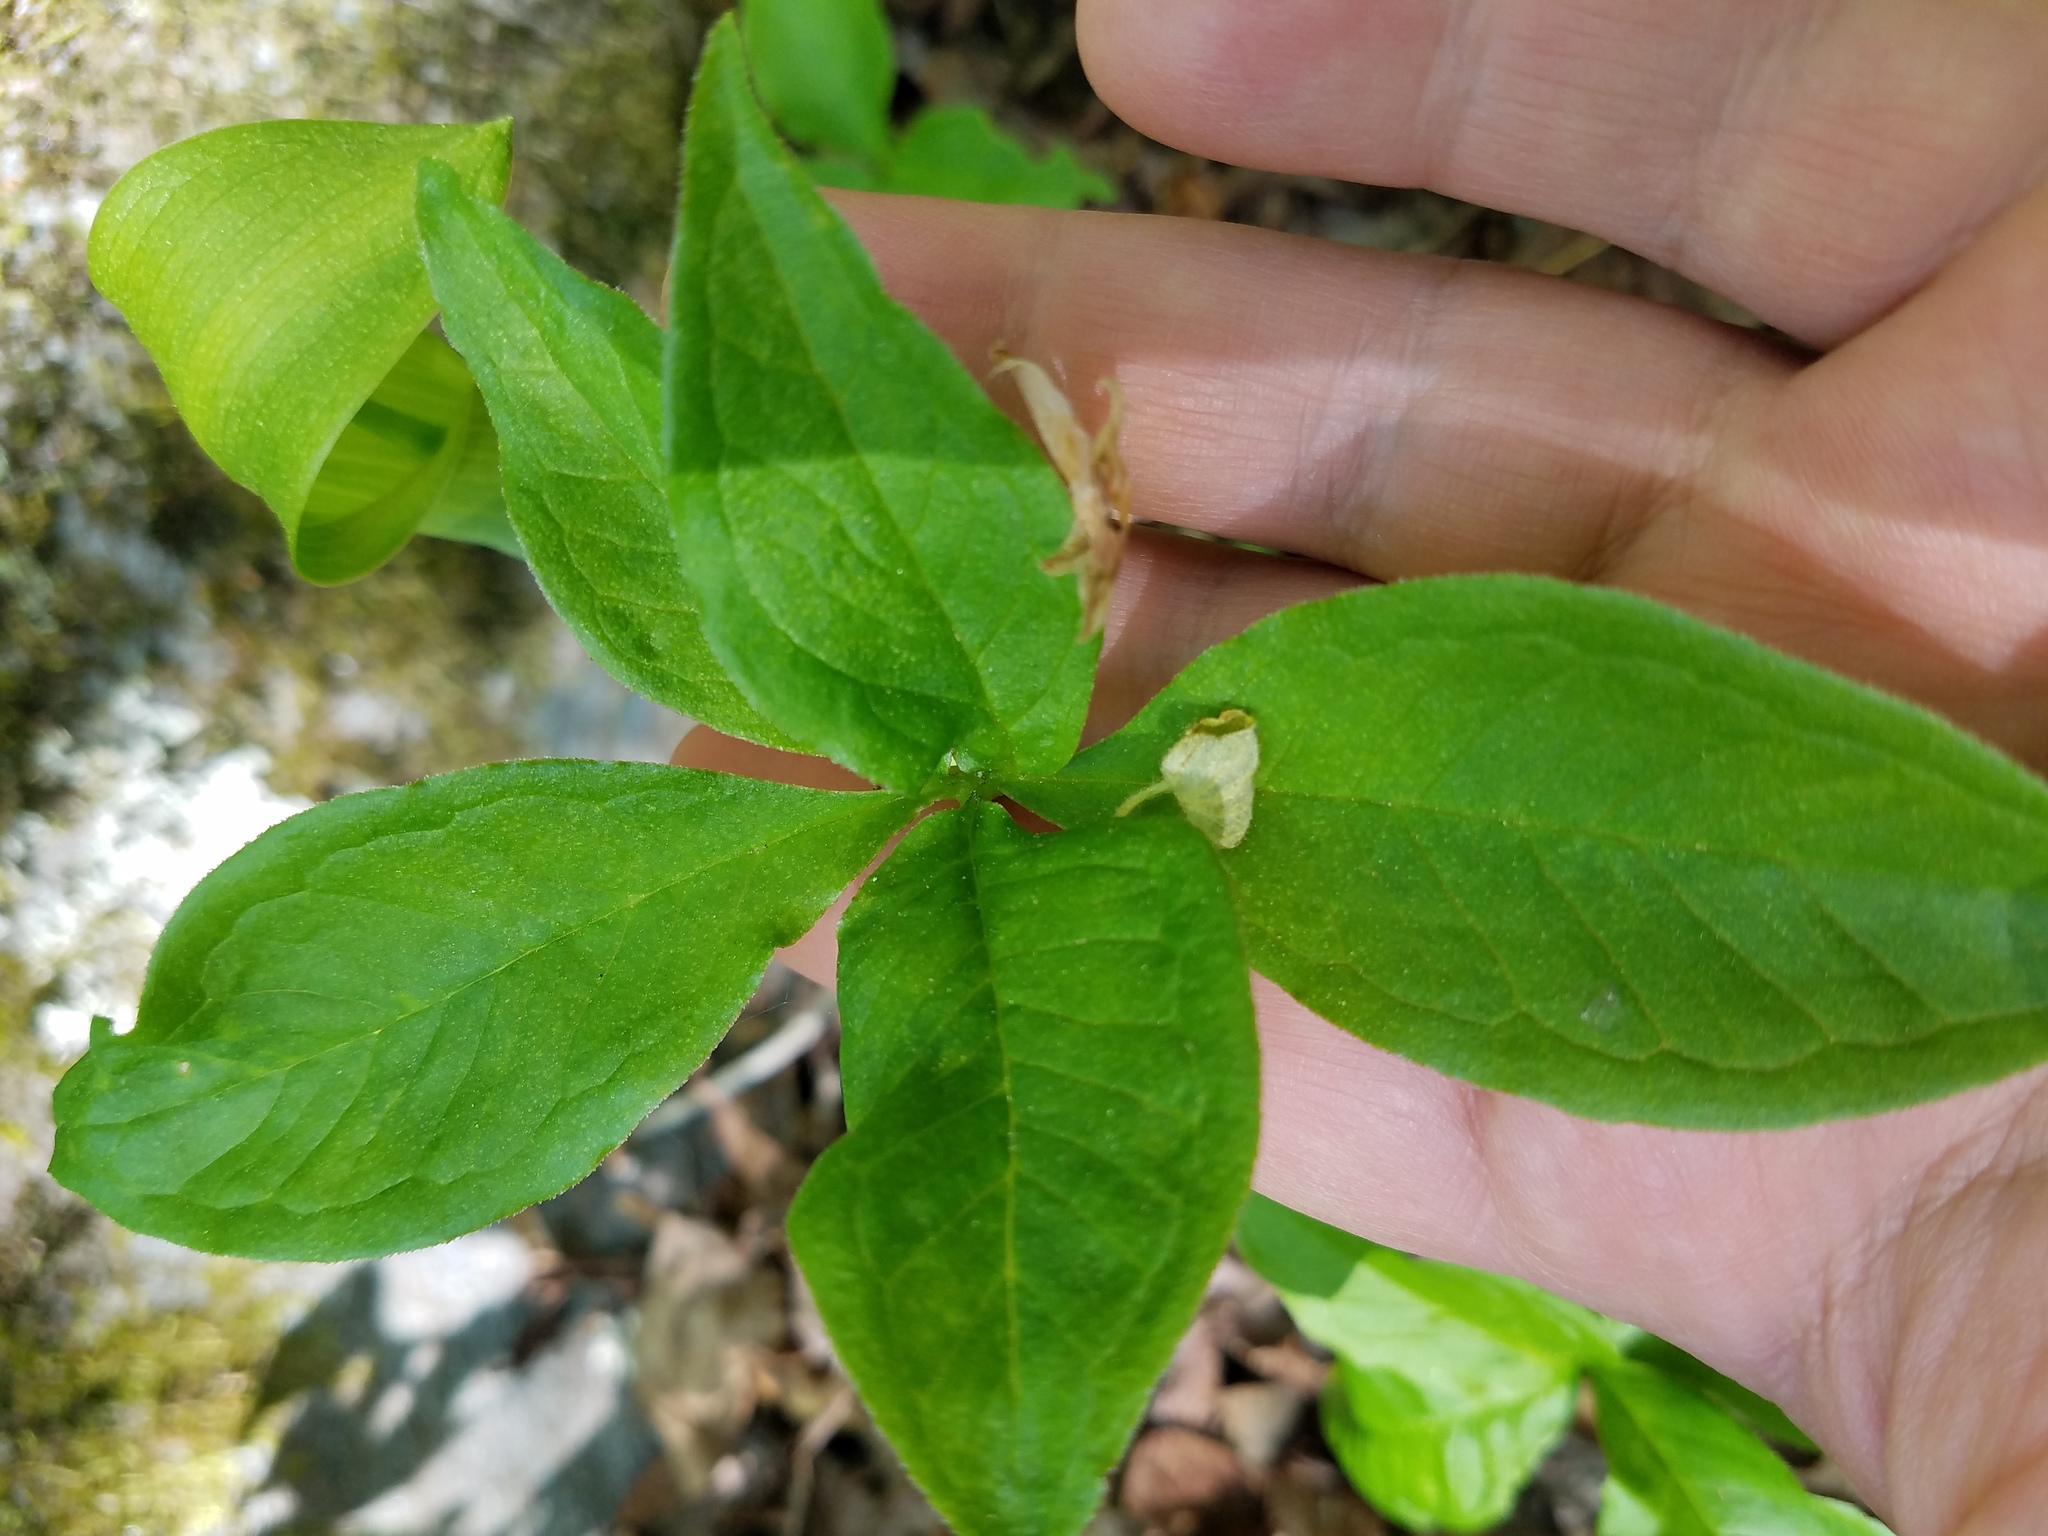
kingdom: Plantae
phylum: Tracheophyta
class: Liliopsida
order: Alismatales
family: Araceae
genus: Arisaema
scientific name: Arisaema quinatum
